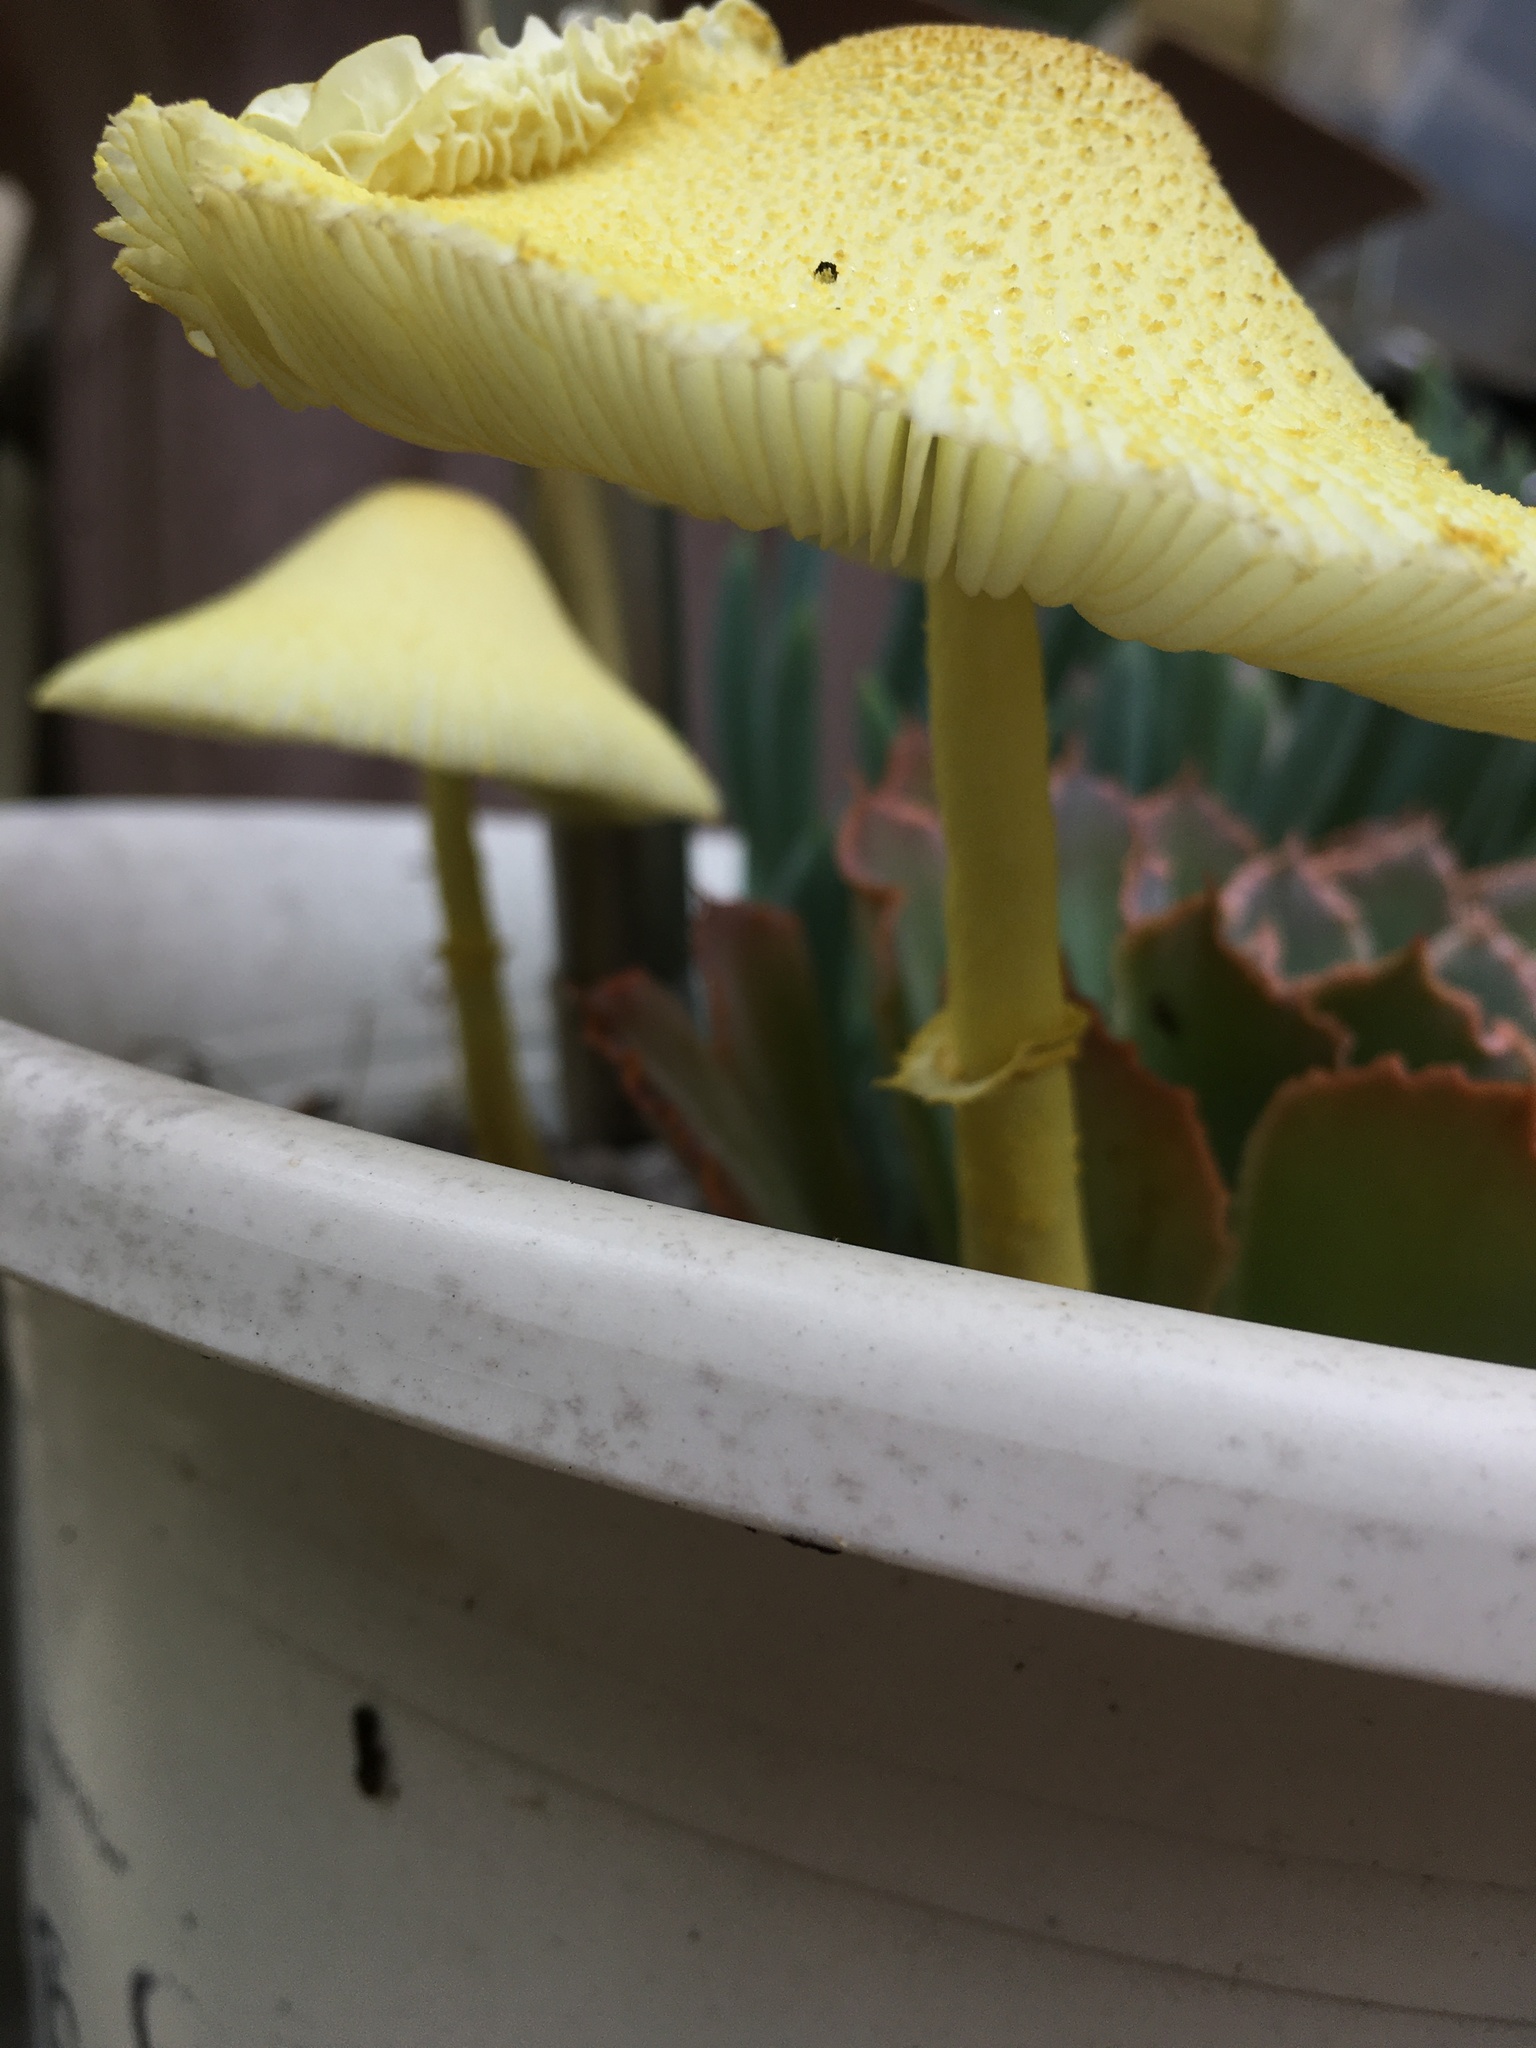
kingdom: Fungi
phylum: Basidiomycota
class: Agaricomycetes
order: Agaricales
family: Agaricaceae
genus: Leucocoprinus
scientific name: Leucocoprinus birnbaumii
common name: Plantpot dapperling
